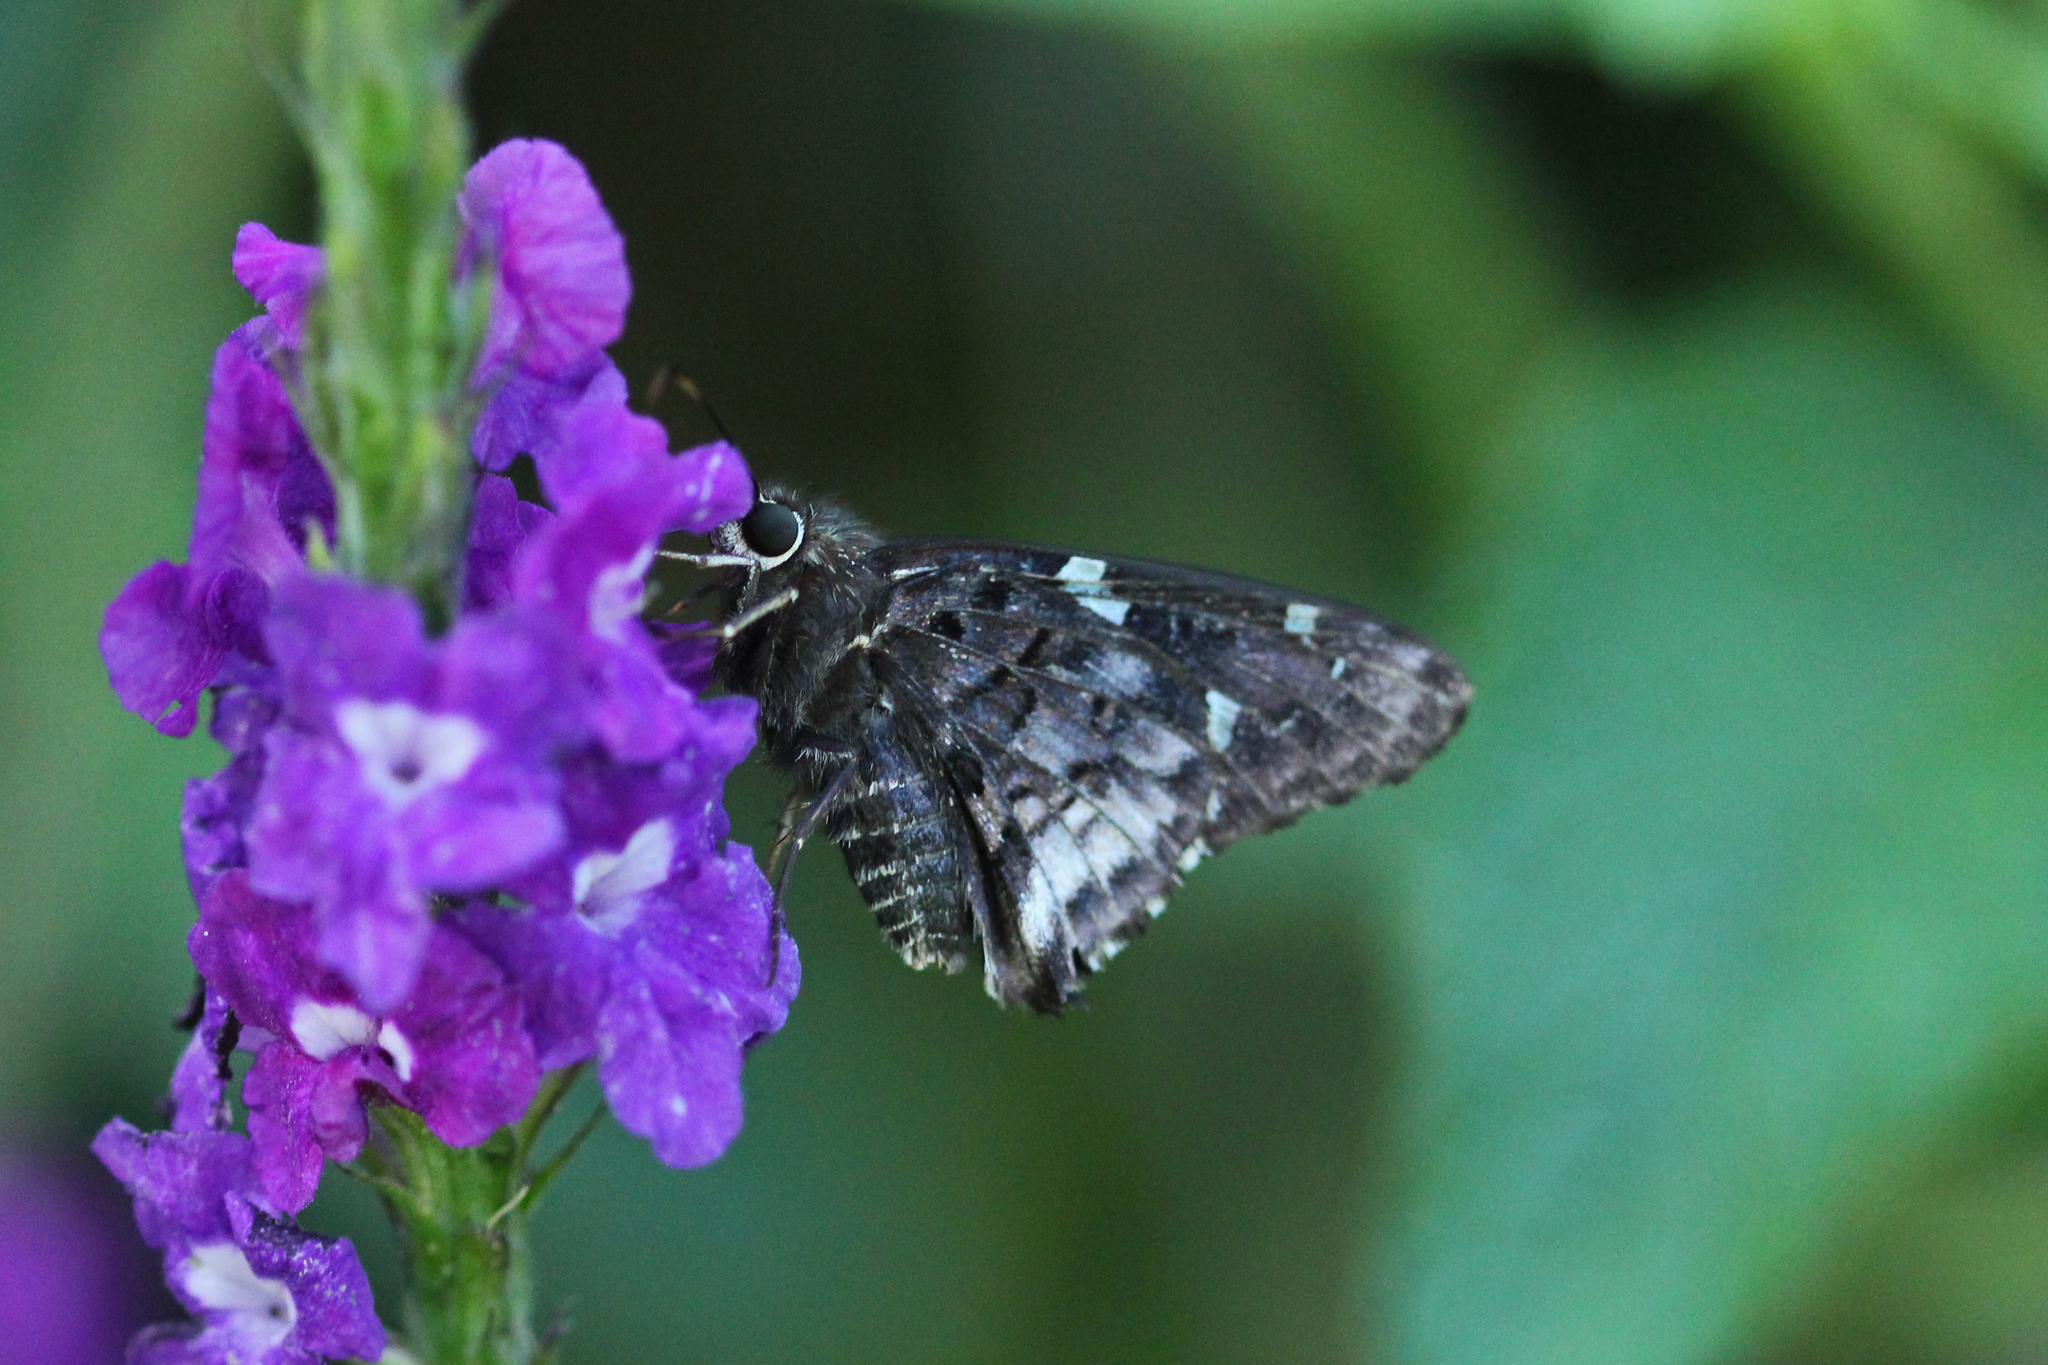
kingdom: Animalia
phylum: Arthropoda
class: Insecta
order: Lepidoptera
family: Hesperiidae
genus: Codatractus
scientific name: Codatractus imalena
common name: Bluish mottled-skipper
